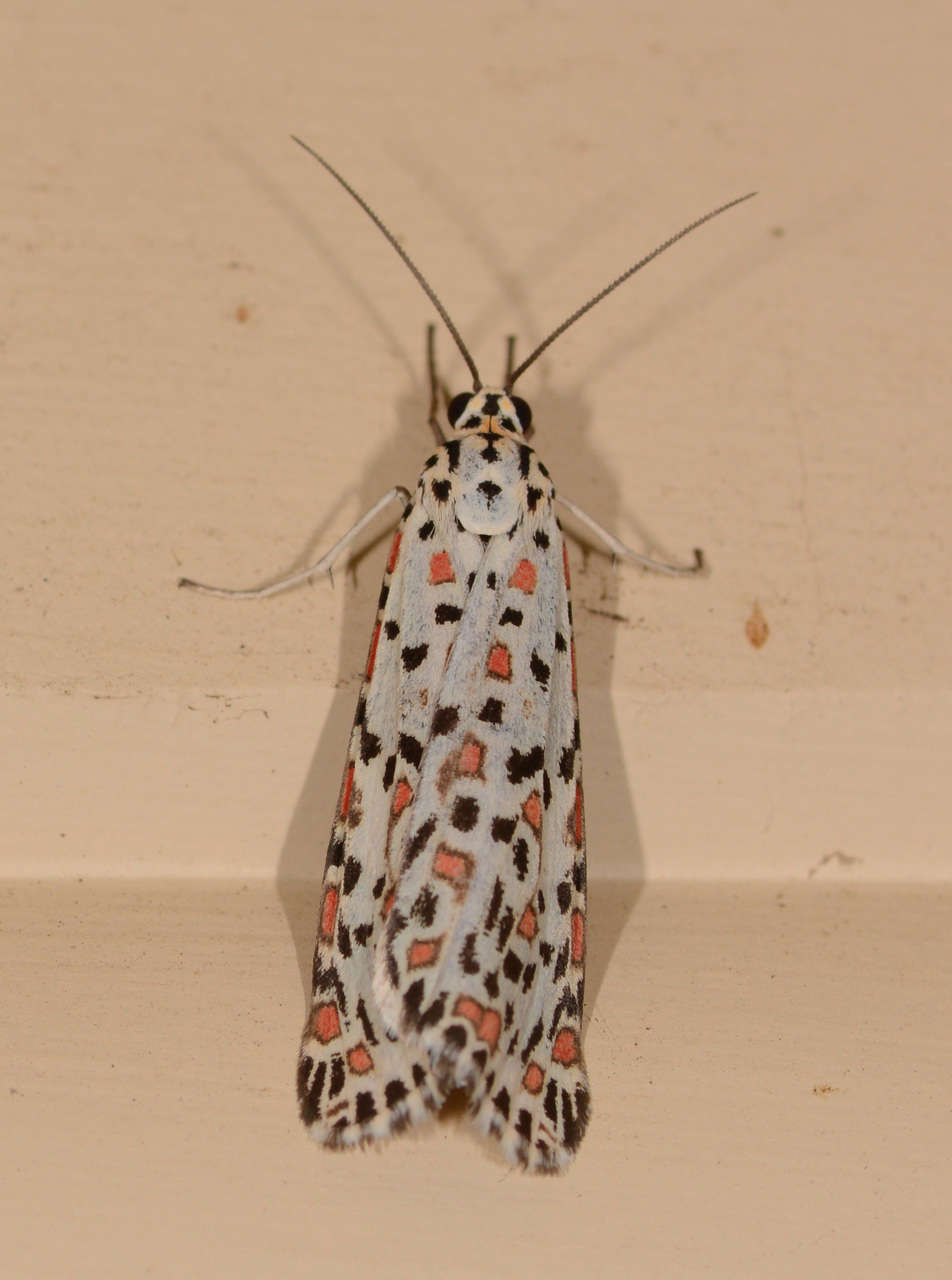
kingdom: Animalia
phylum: Arthropoda
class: Insecta
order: Lepidoptera
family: Erebidae
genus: Utetheisa
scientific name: Utetheisa pulchelloides
